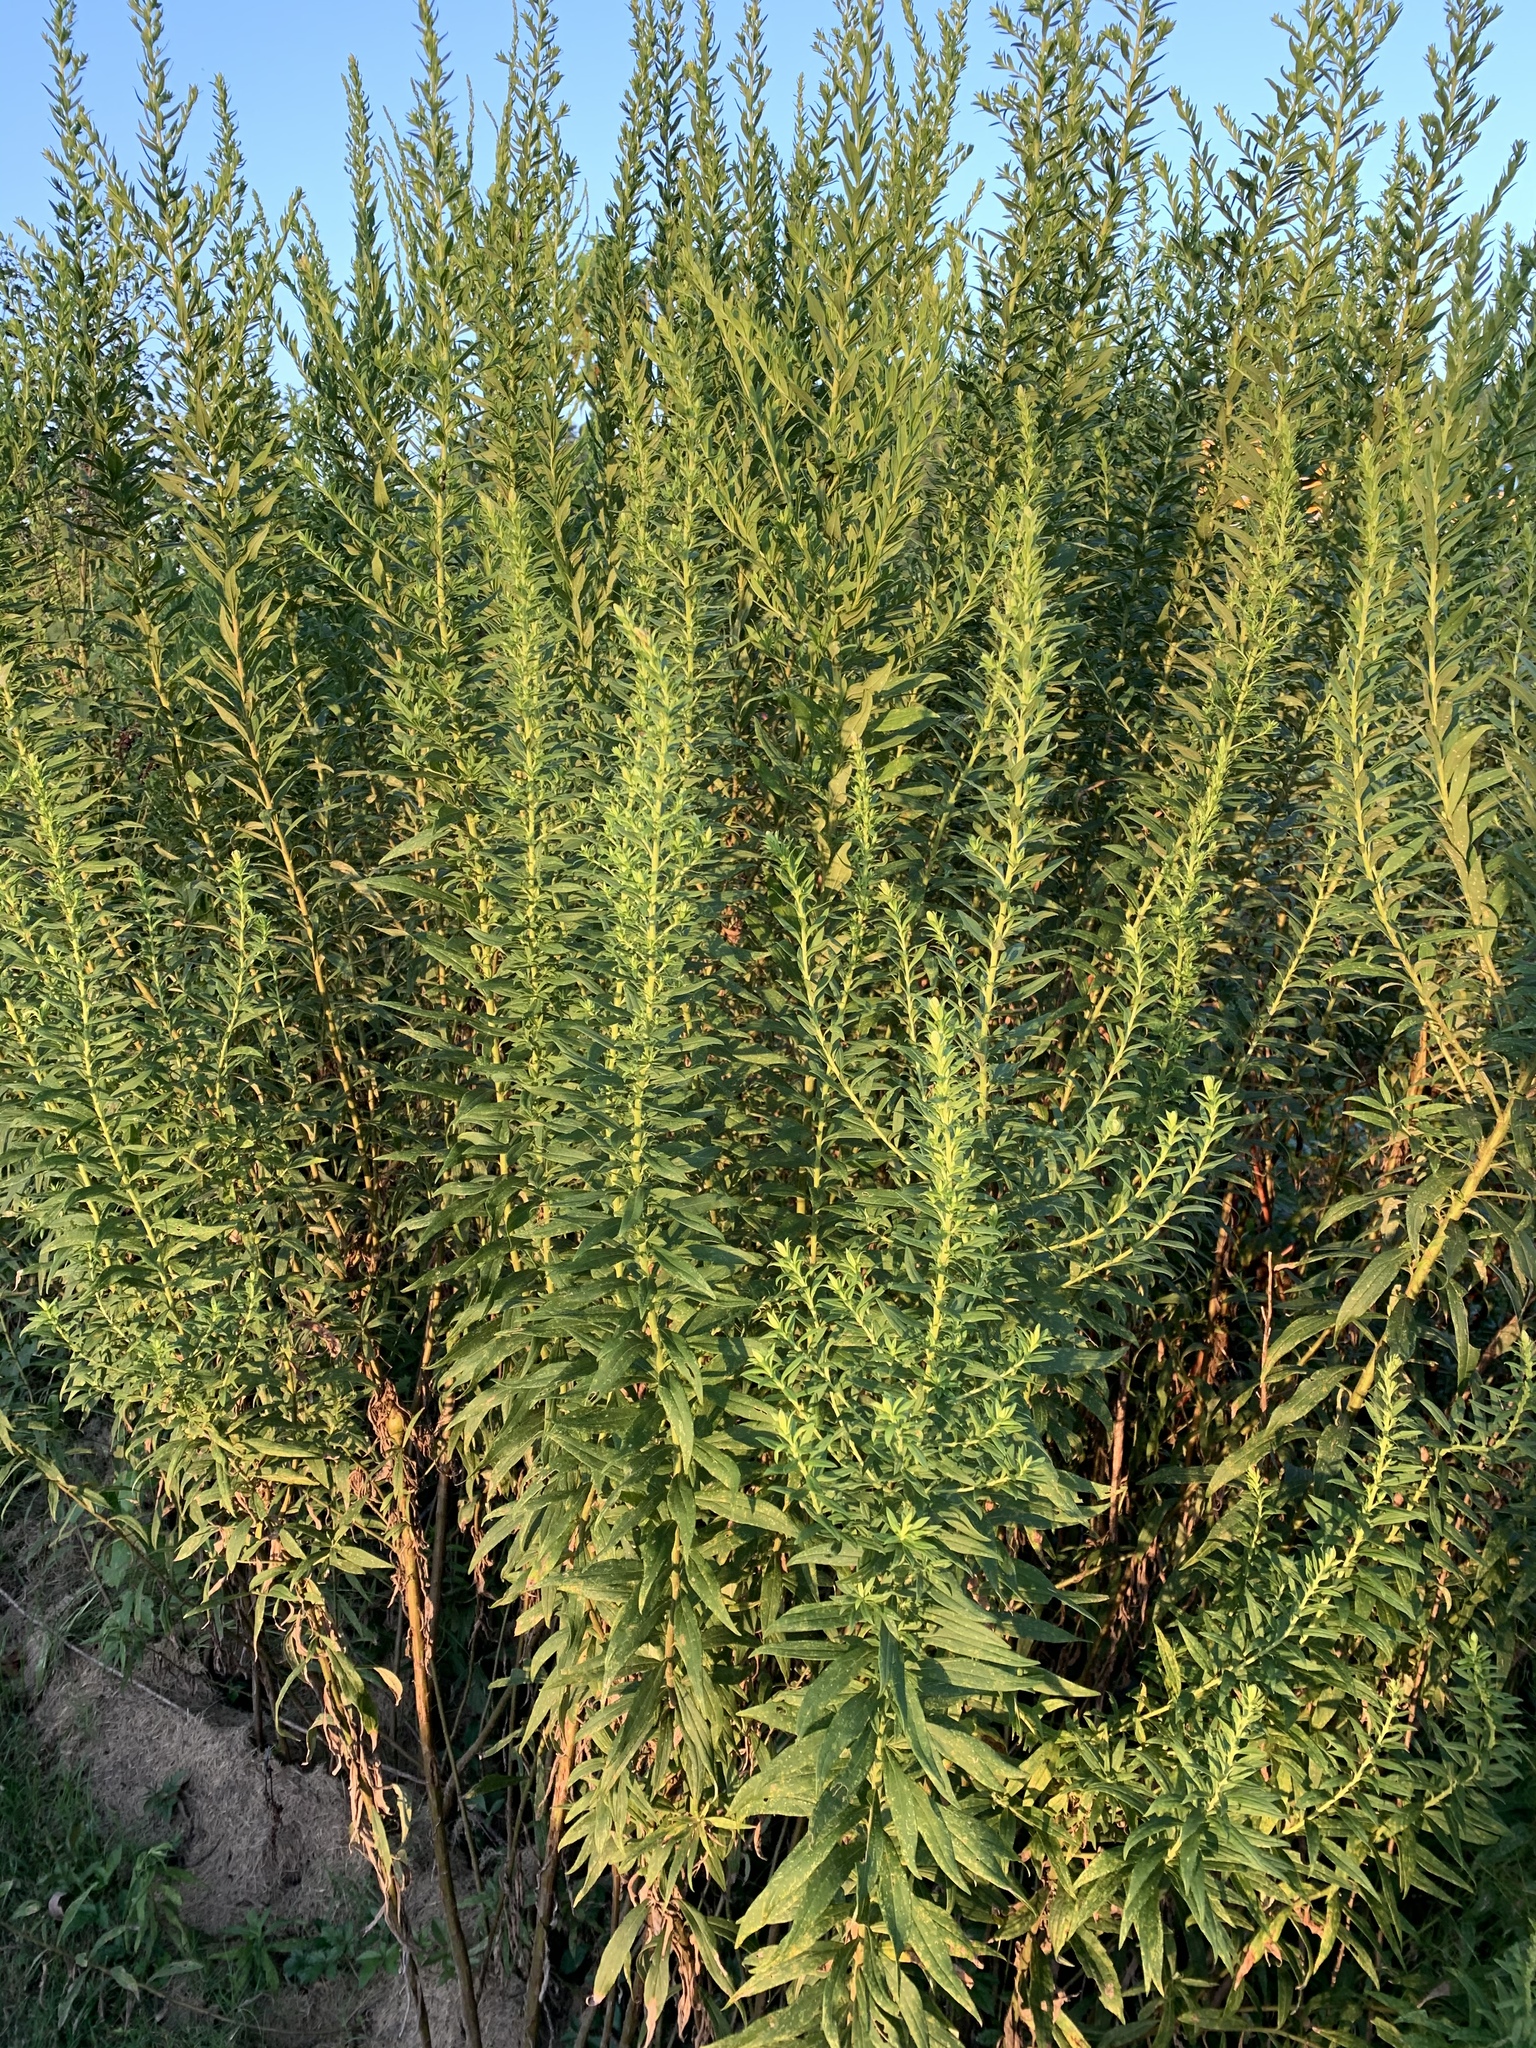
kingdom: Plantae
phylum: Tracheophyta
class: Magnoliopsida
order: Asterales
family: Asteraceae
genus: Solidago
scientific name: Solidago altissima
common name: Late goldenrod
